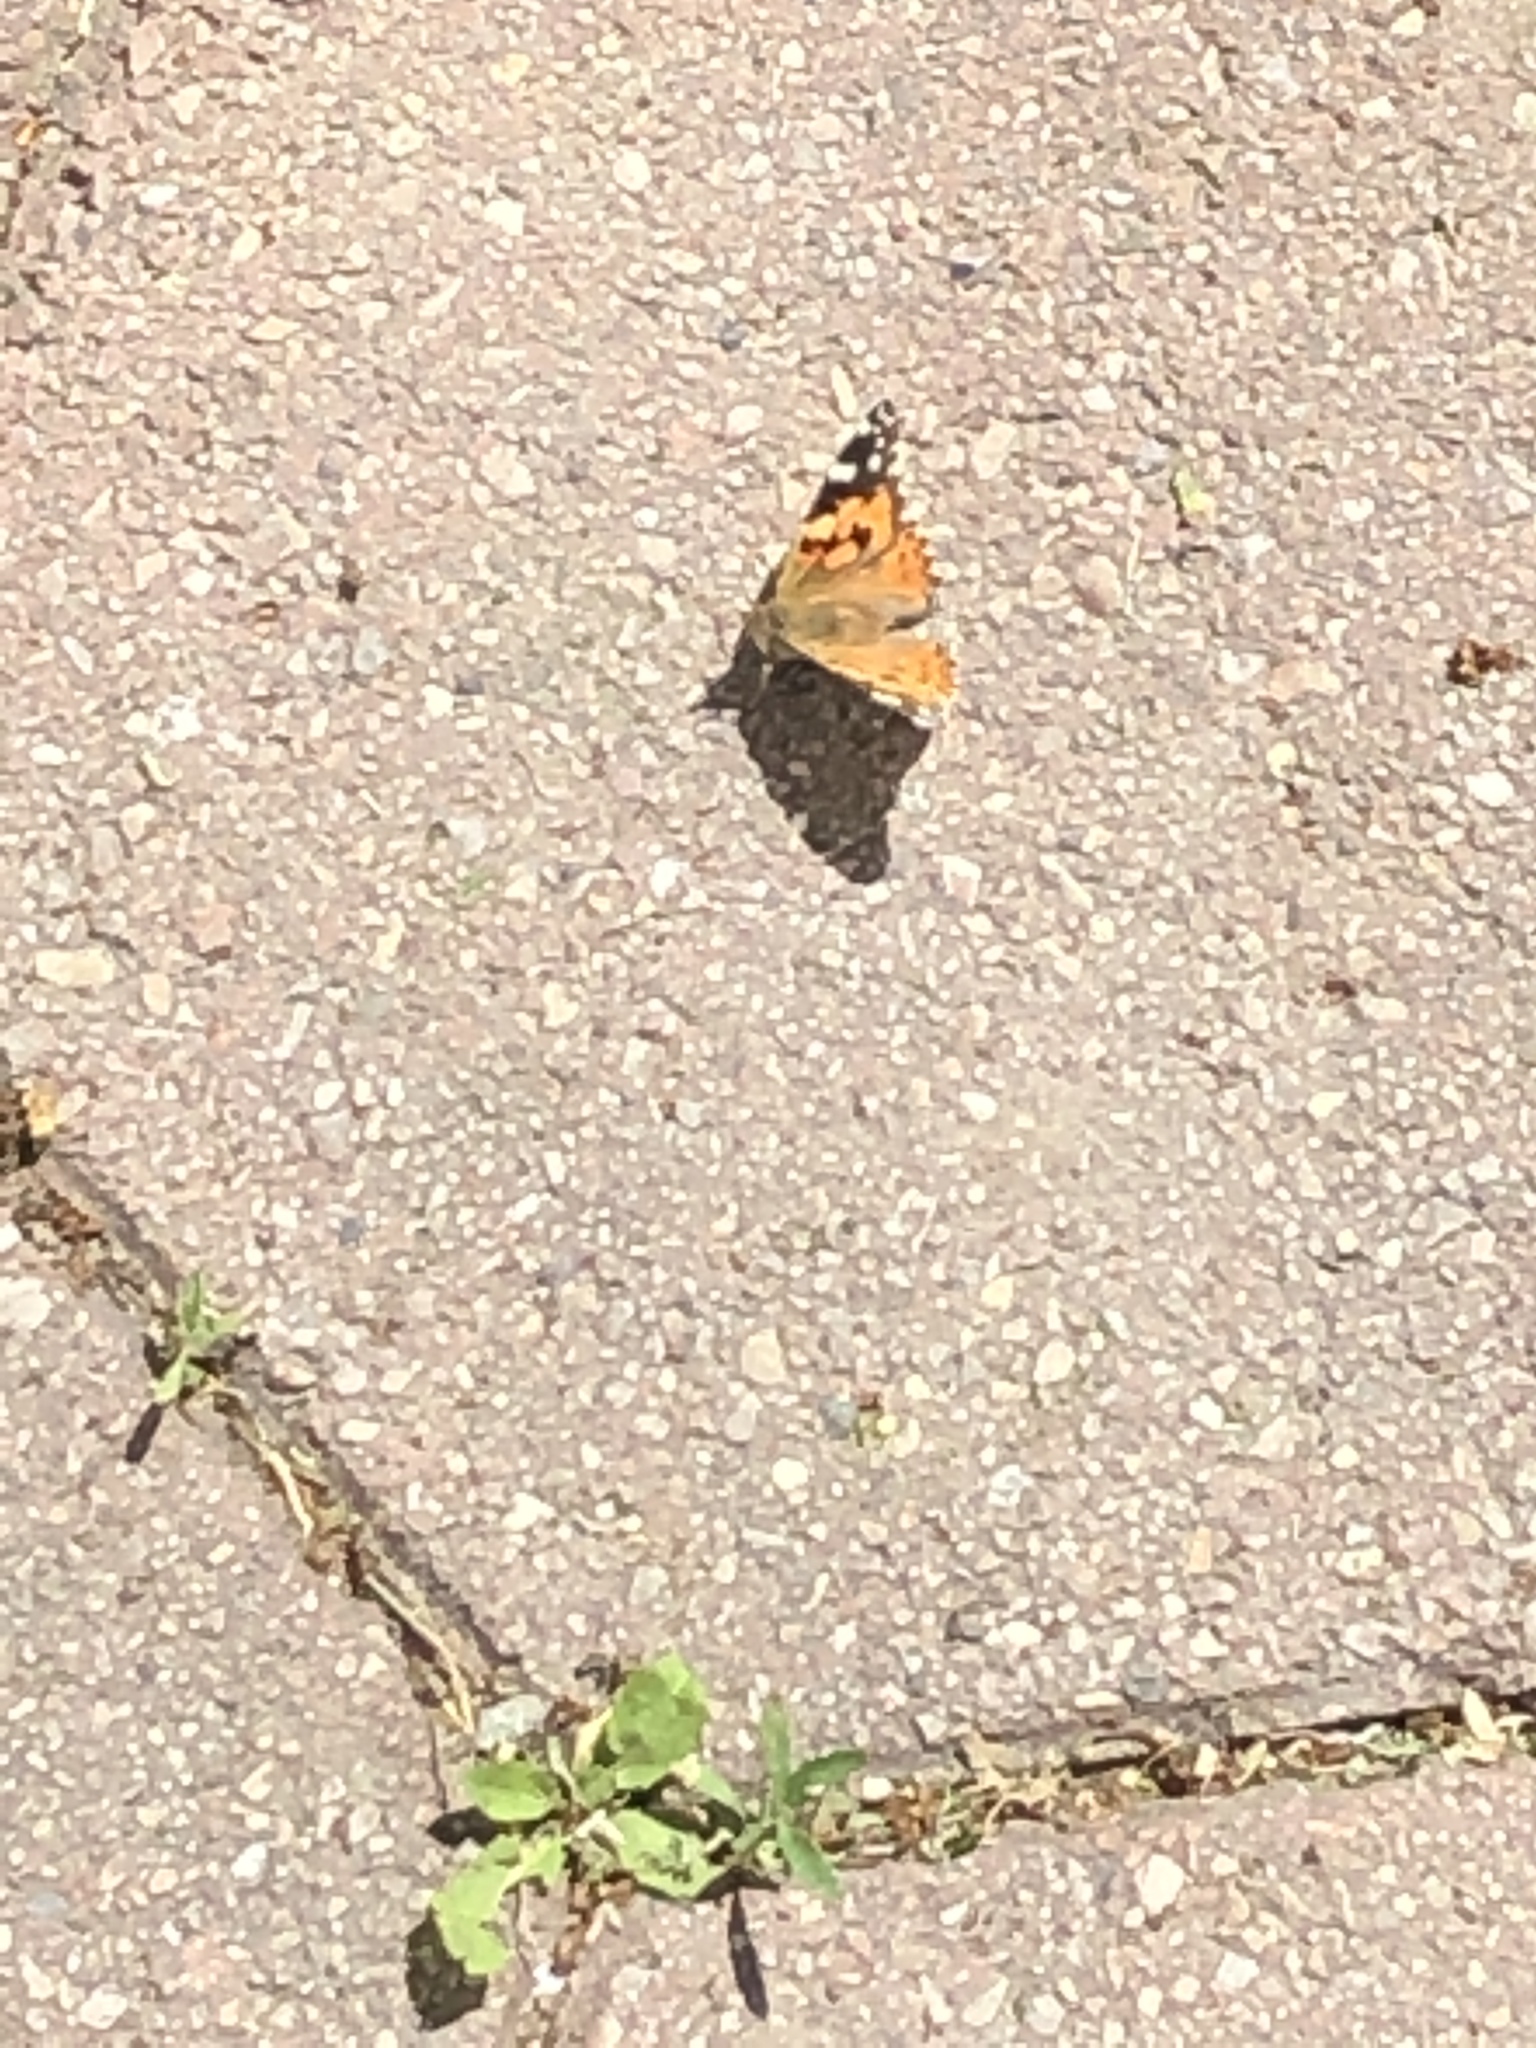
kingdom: Animalia
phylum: Arthropoda
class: Insecta
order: Lepidoptera
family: Nymphalidae
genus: Vanessa
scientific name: Vanessa cardui
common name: Painted lady
